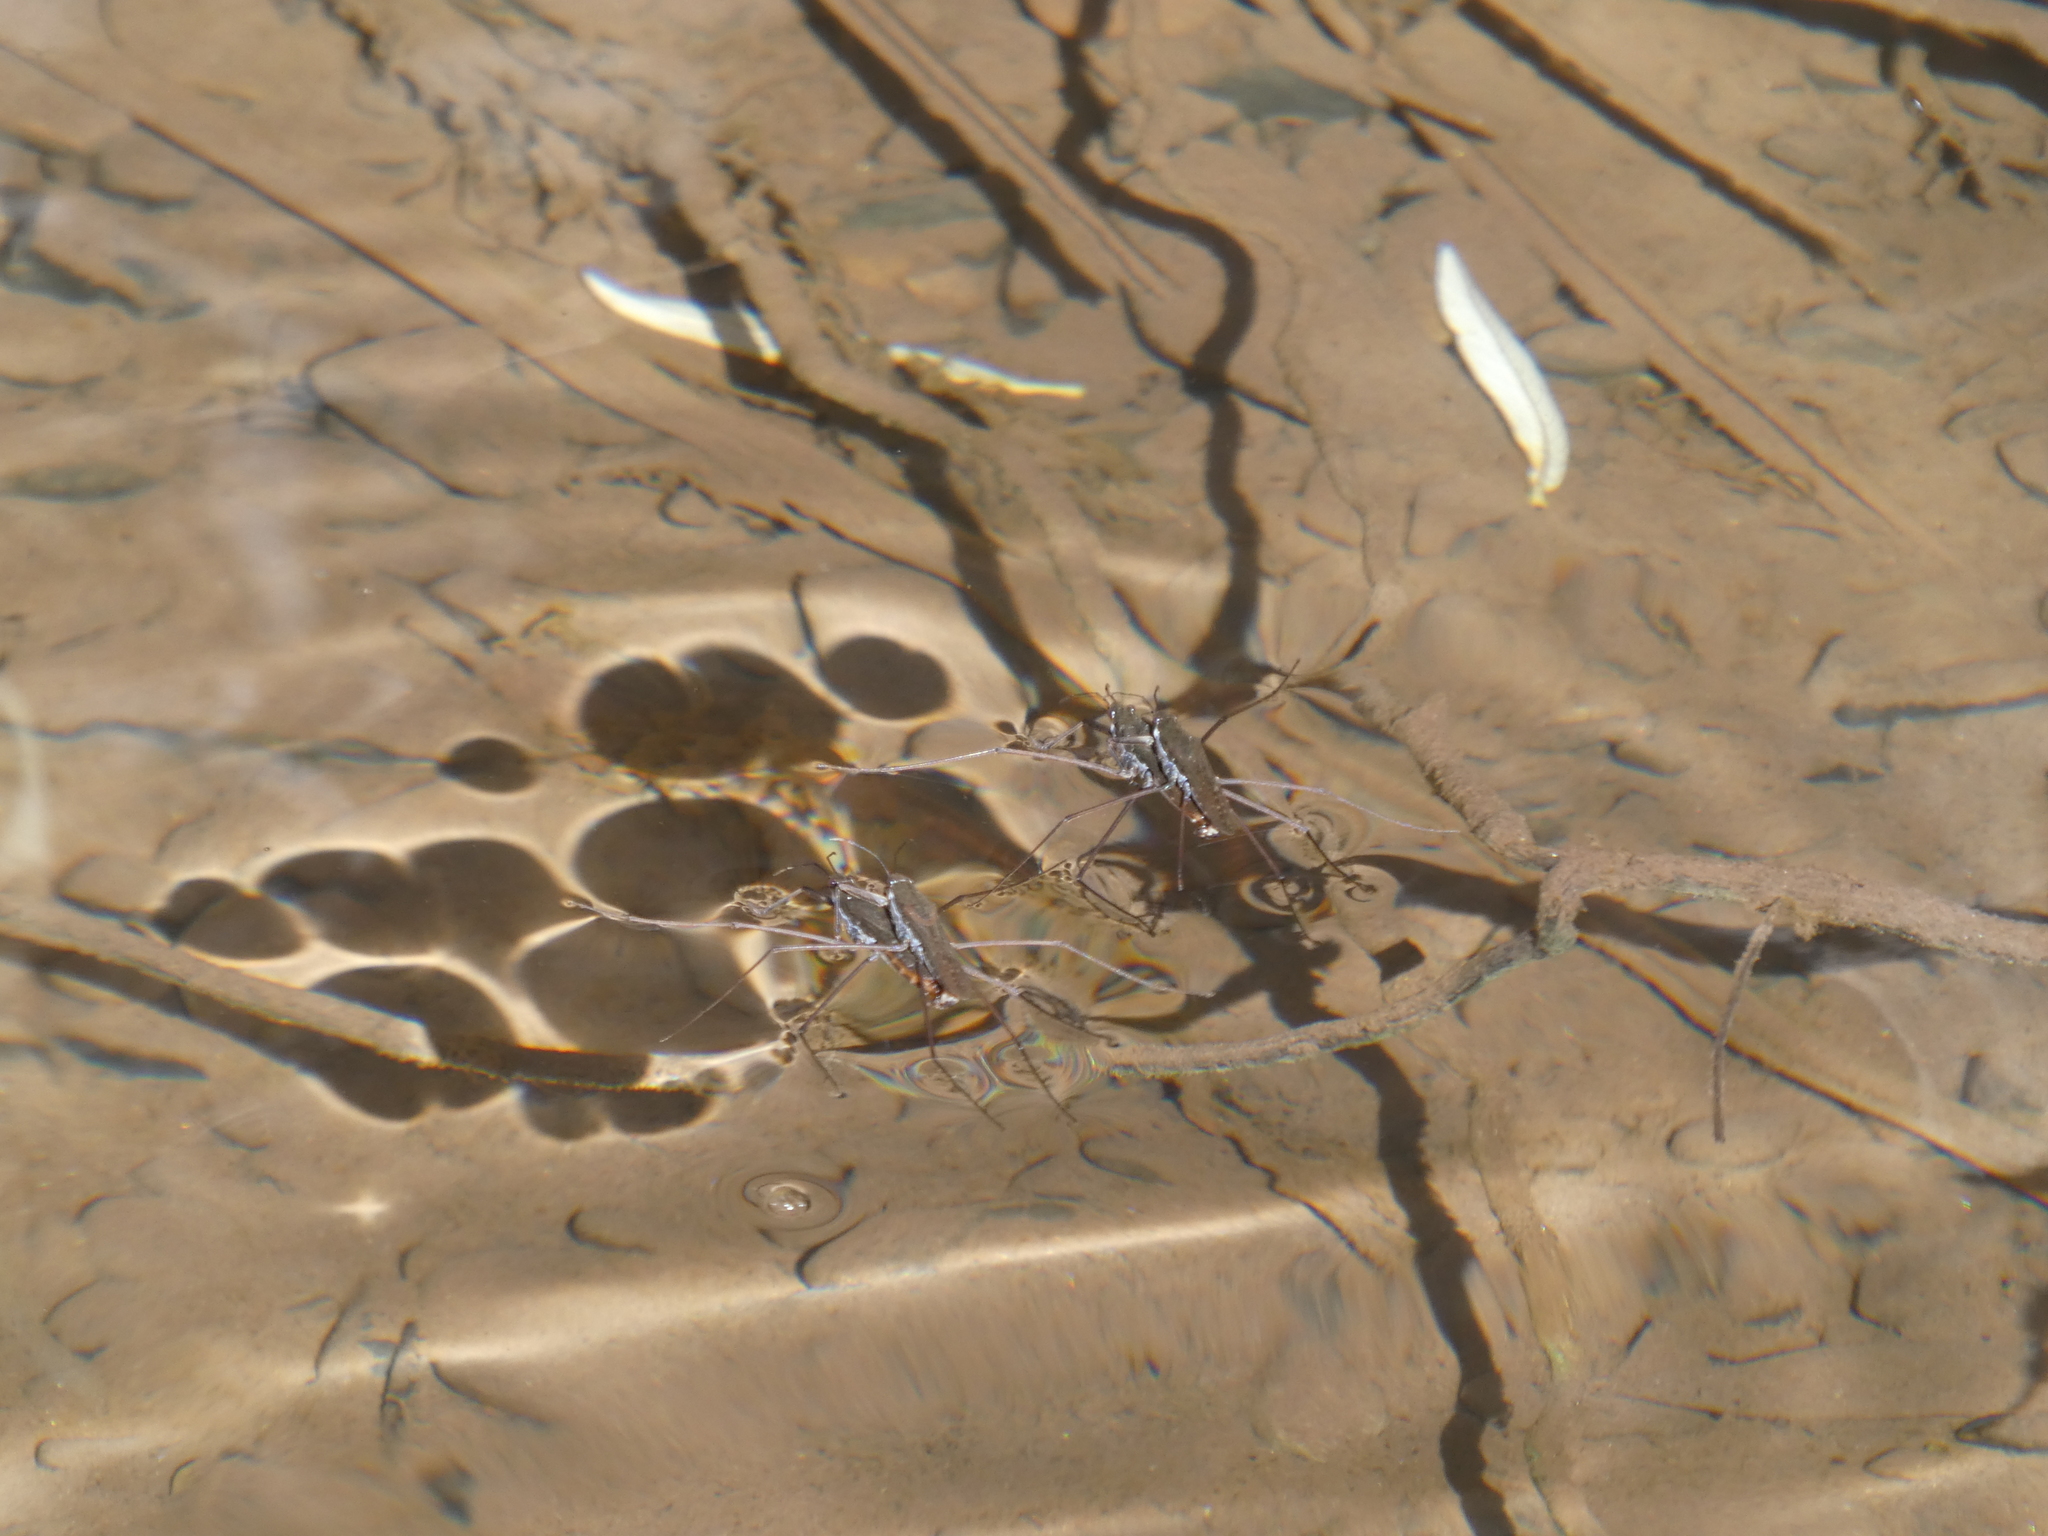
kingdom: Animalia
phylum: Arthropoda
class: Insecta
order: Hemiptera
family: Gerridae
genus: Aquarius
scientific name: Aquarius remigis
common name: Common water strider
